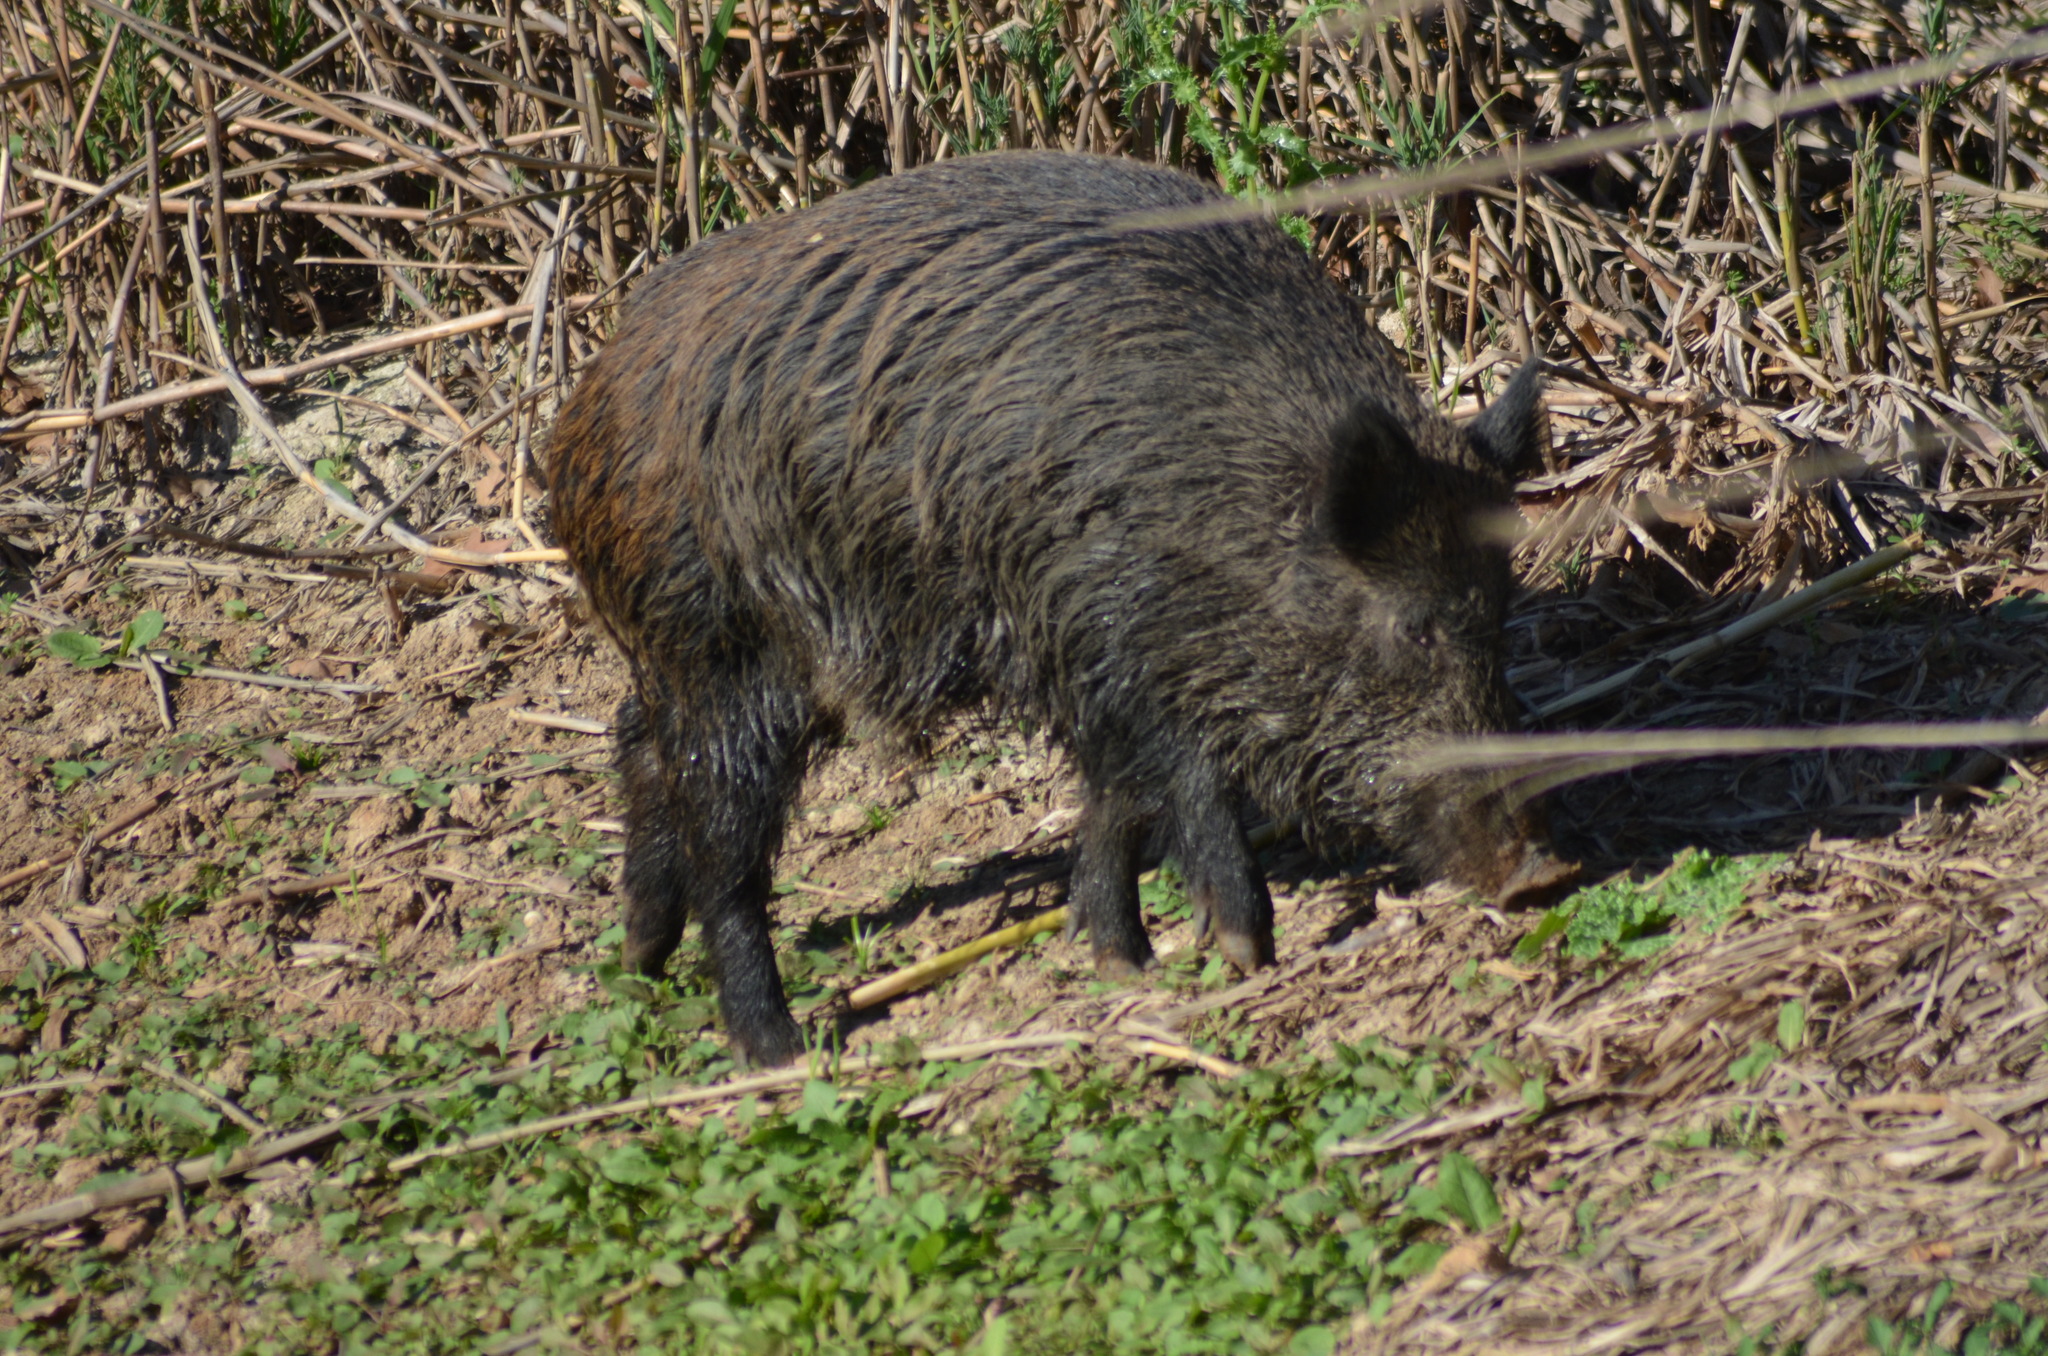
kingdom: Animalia
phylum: Chordata
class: Mammalia
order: Artiodactyla
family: Suidae
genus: Sus
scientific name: Sus scrofa
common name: Wild boar
